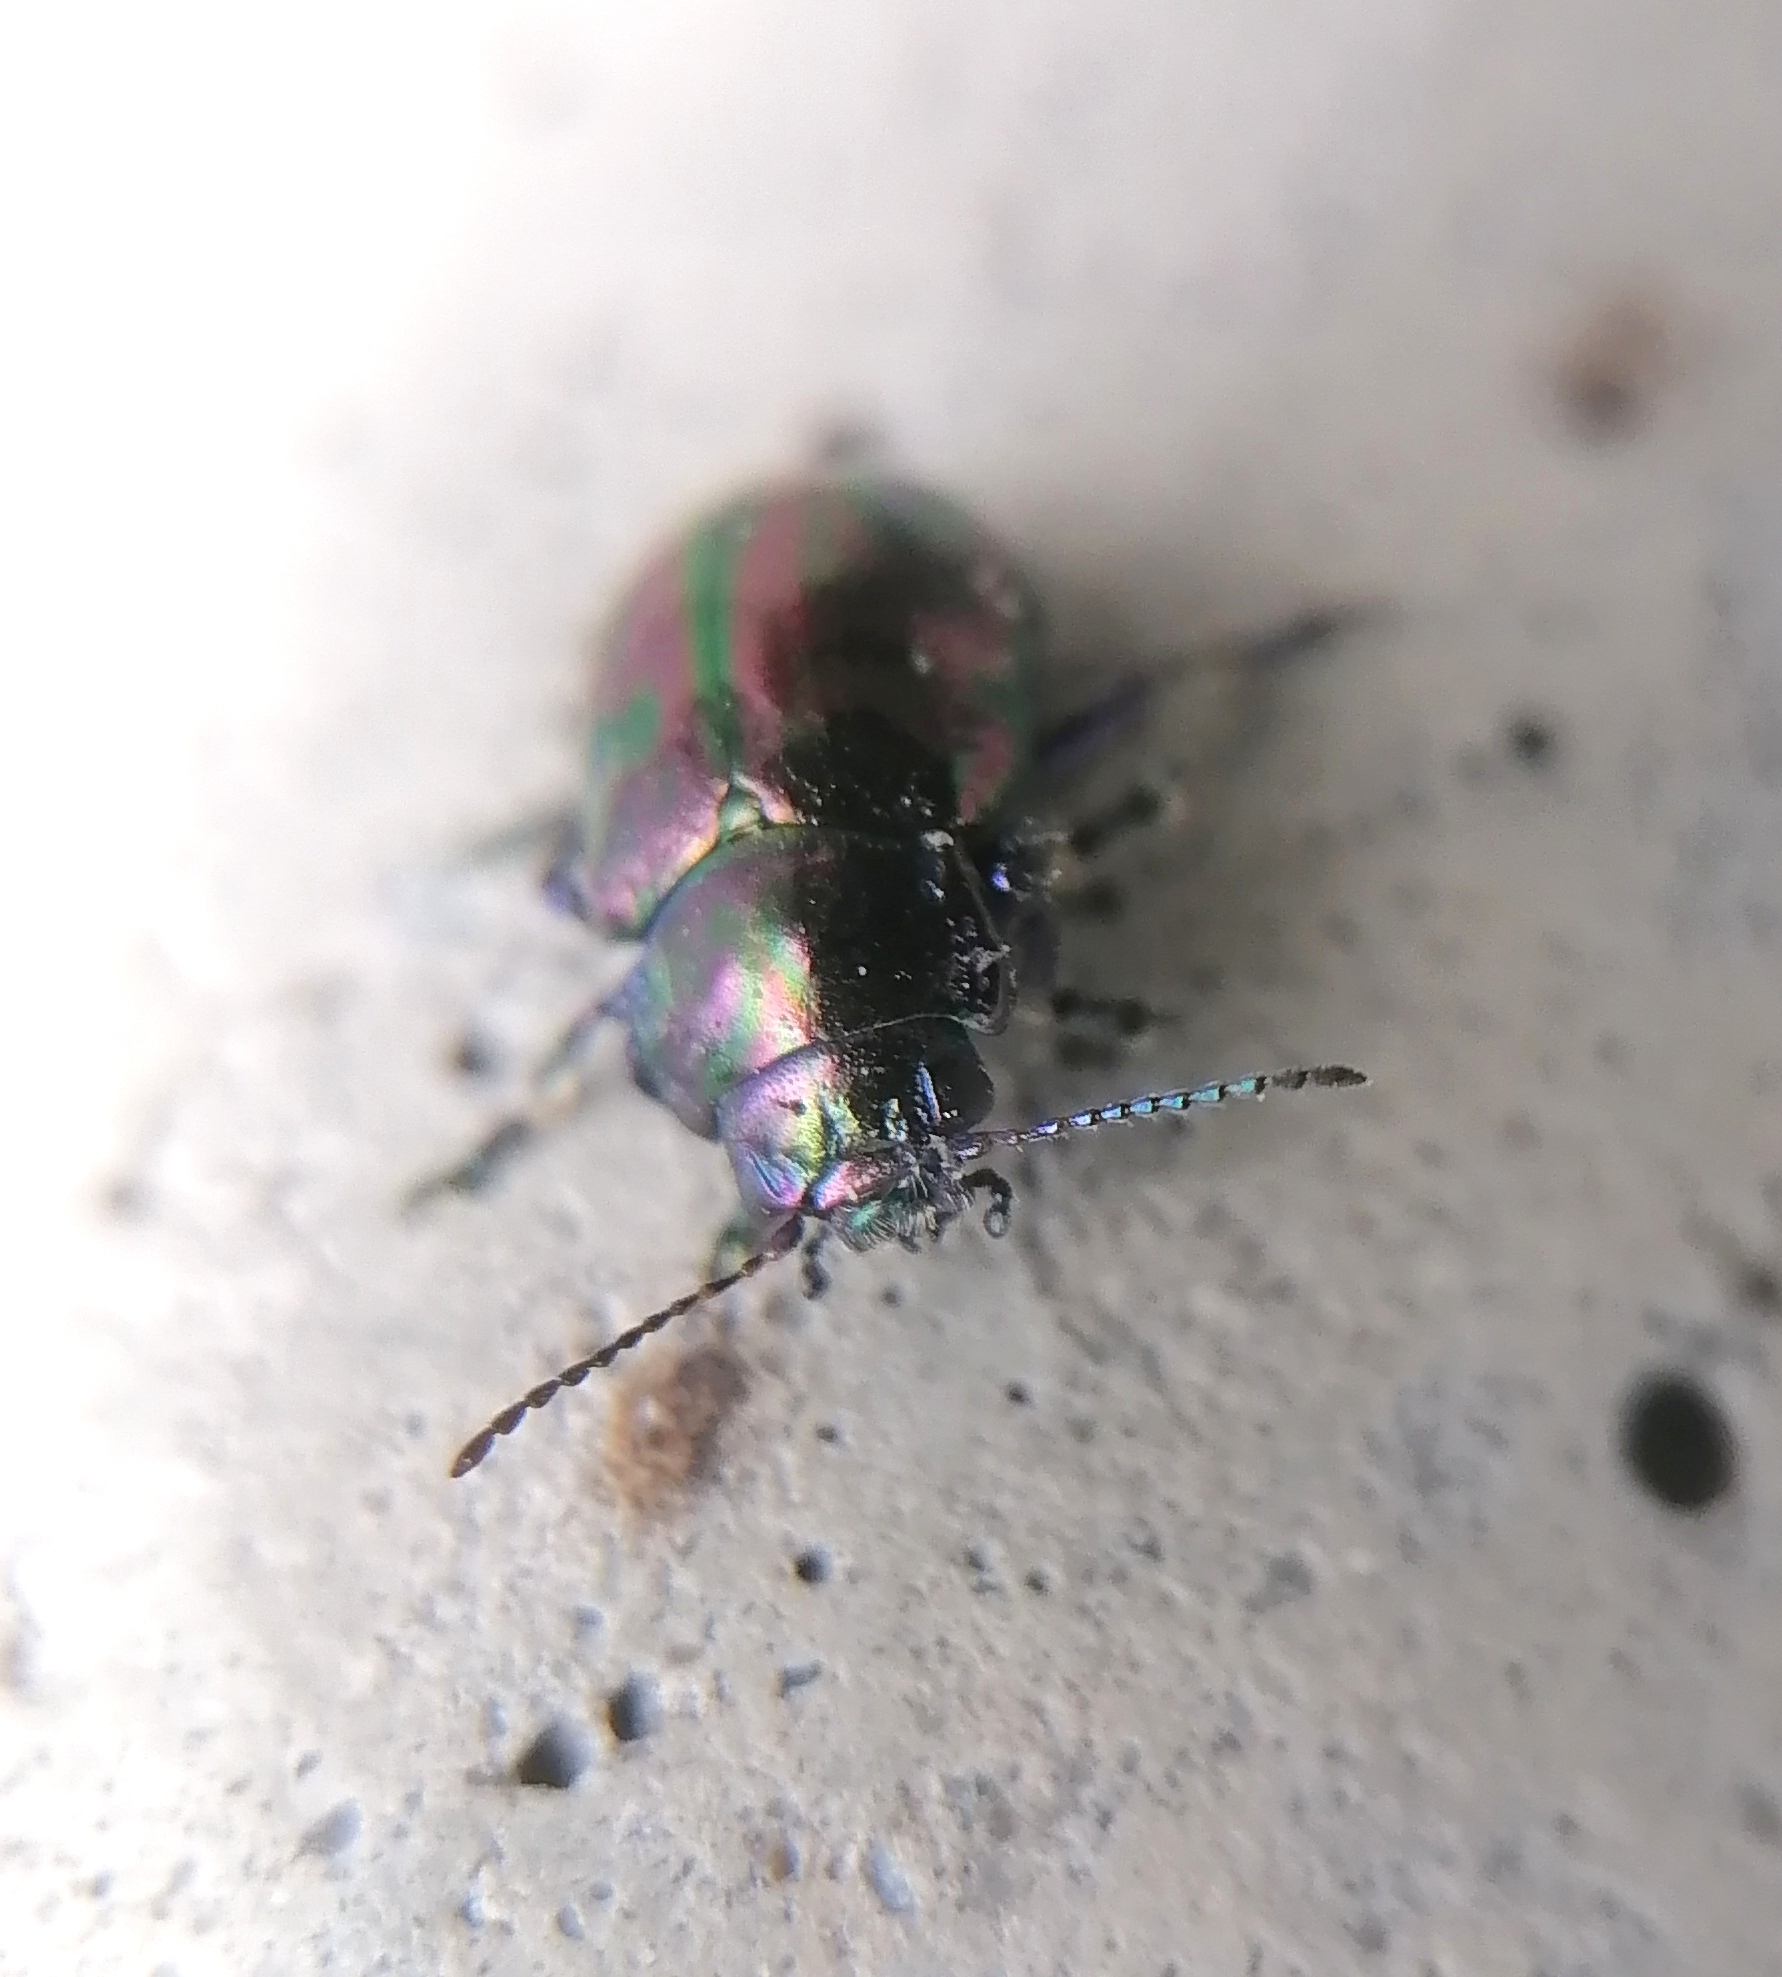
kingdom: Animalia
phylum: Arthropoda
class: Insecta
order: Coleoptera
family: Chrysomelidae
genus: Ambrostoma
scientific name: Ambrostoma
